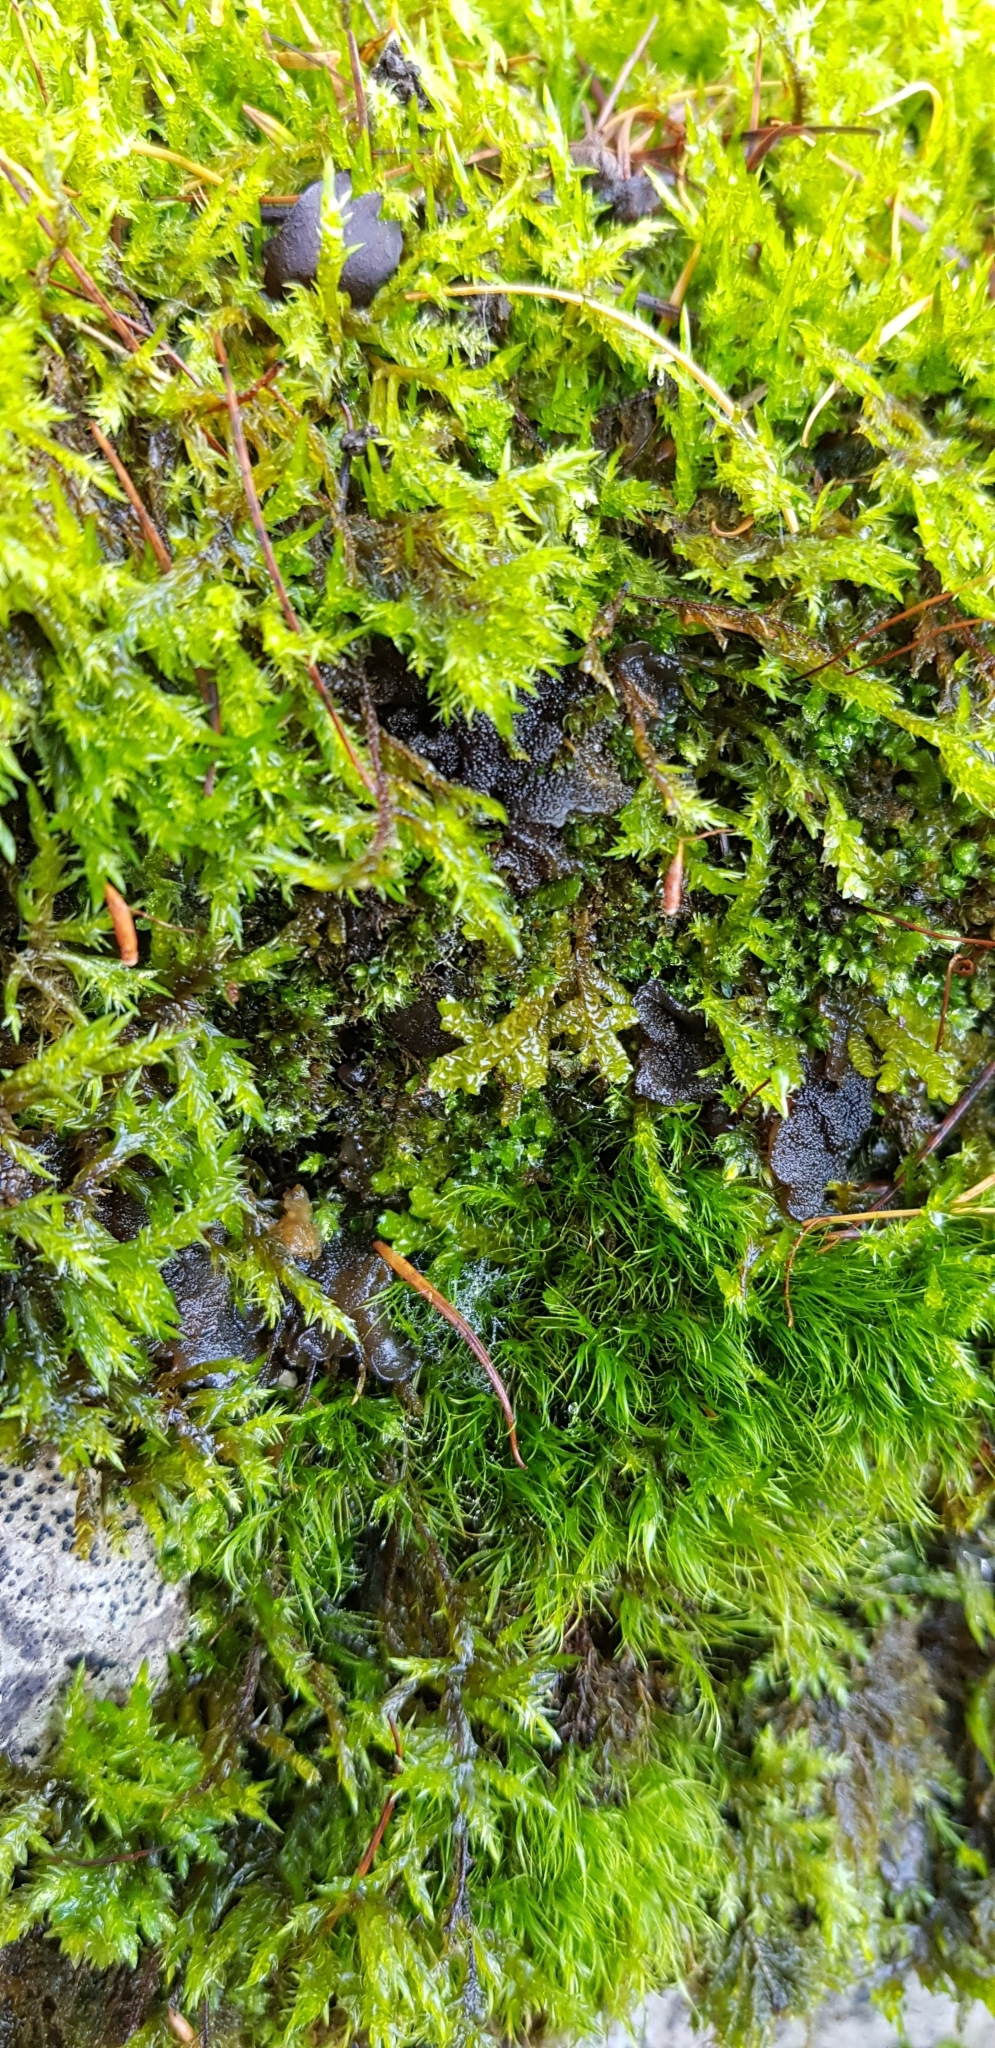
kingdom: Plantae
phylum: Marchantiophyta
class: Jungermanniopsida
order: Porellales
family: Porellaceae
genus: Porella
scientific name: Porella platyphylla
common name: Wall scalewort
